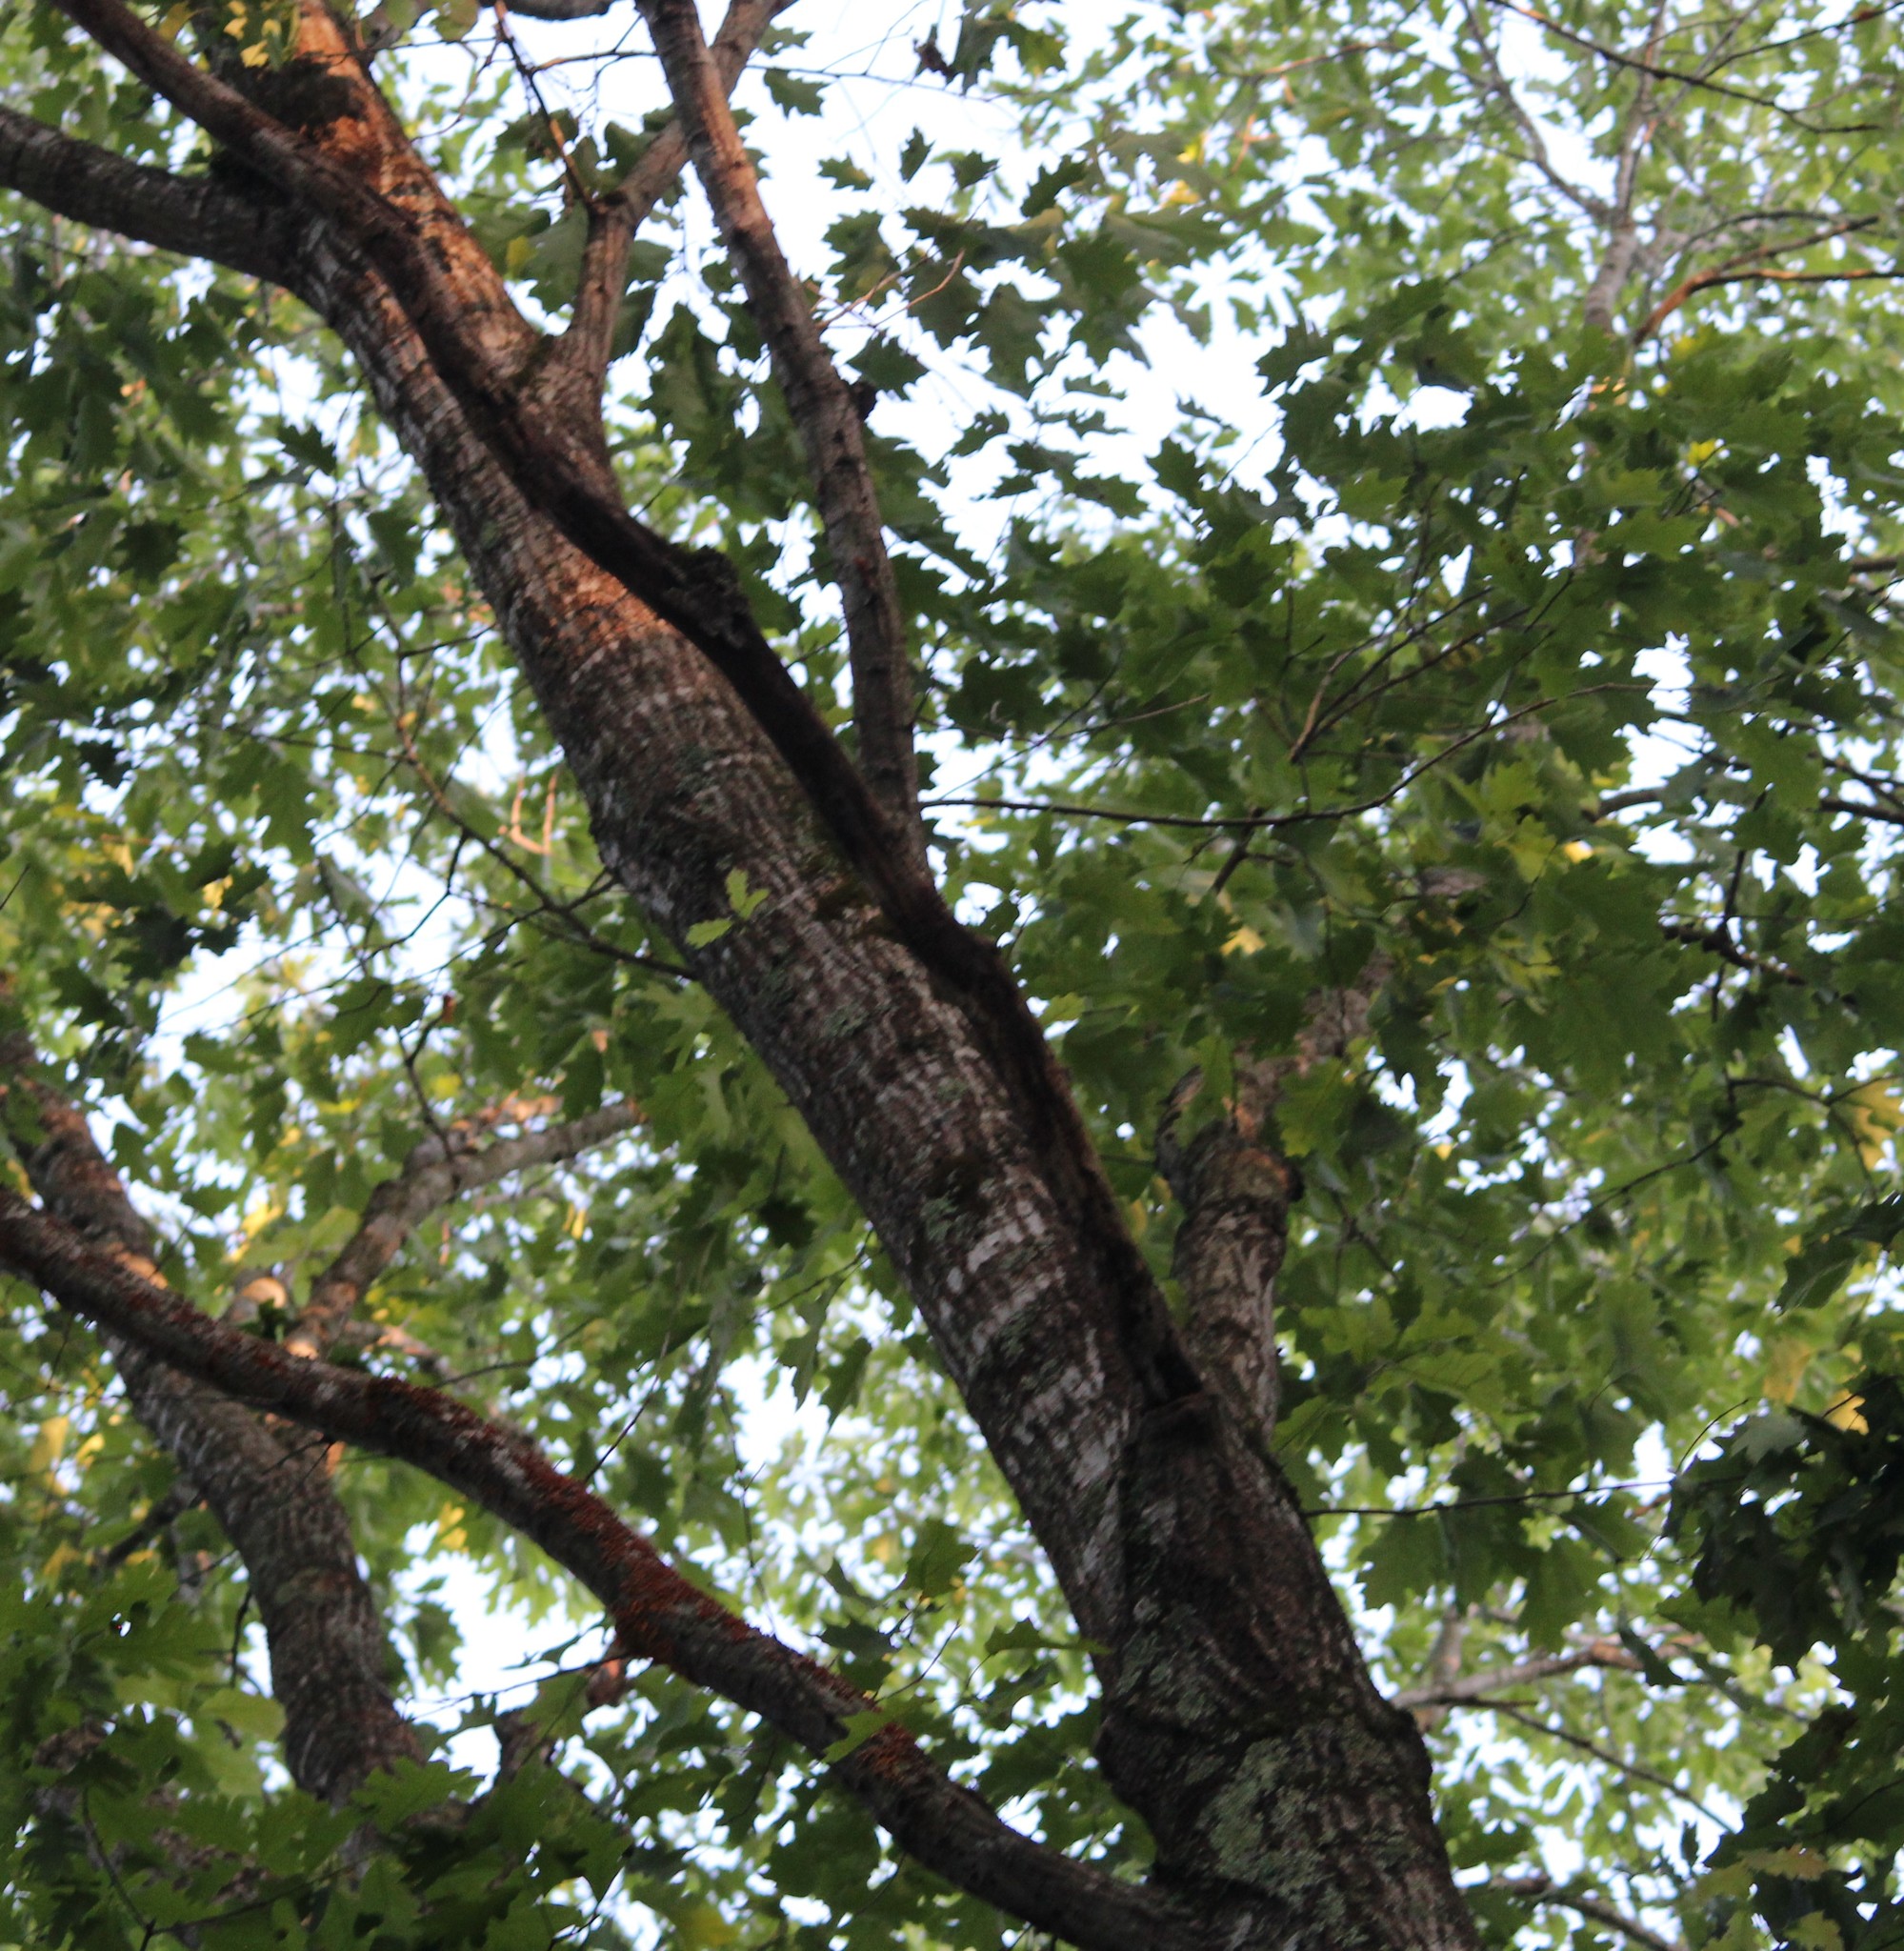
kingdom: Plantae
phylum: Tracheophyta
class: Magnoliopsida
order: Fagales
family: Fagaceae
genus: Quercus
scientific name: Quercus rubra
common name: Red oak
